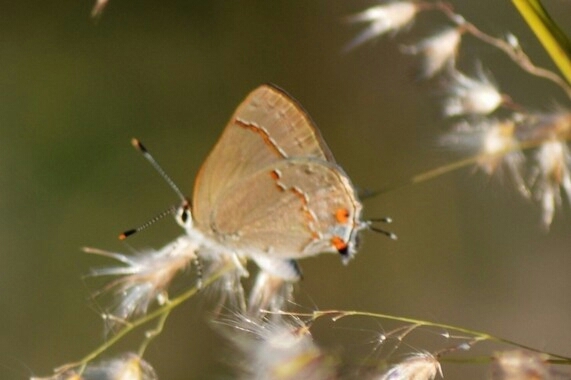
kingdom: Animalia
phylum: Arthropoda
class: Insecta
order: Lepidoptera
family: Lycaenidae
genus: Thecla
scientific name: Thecla gnosia
